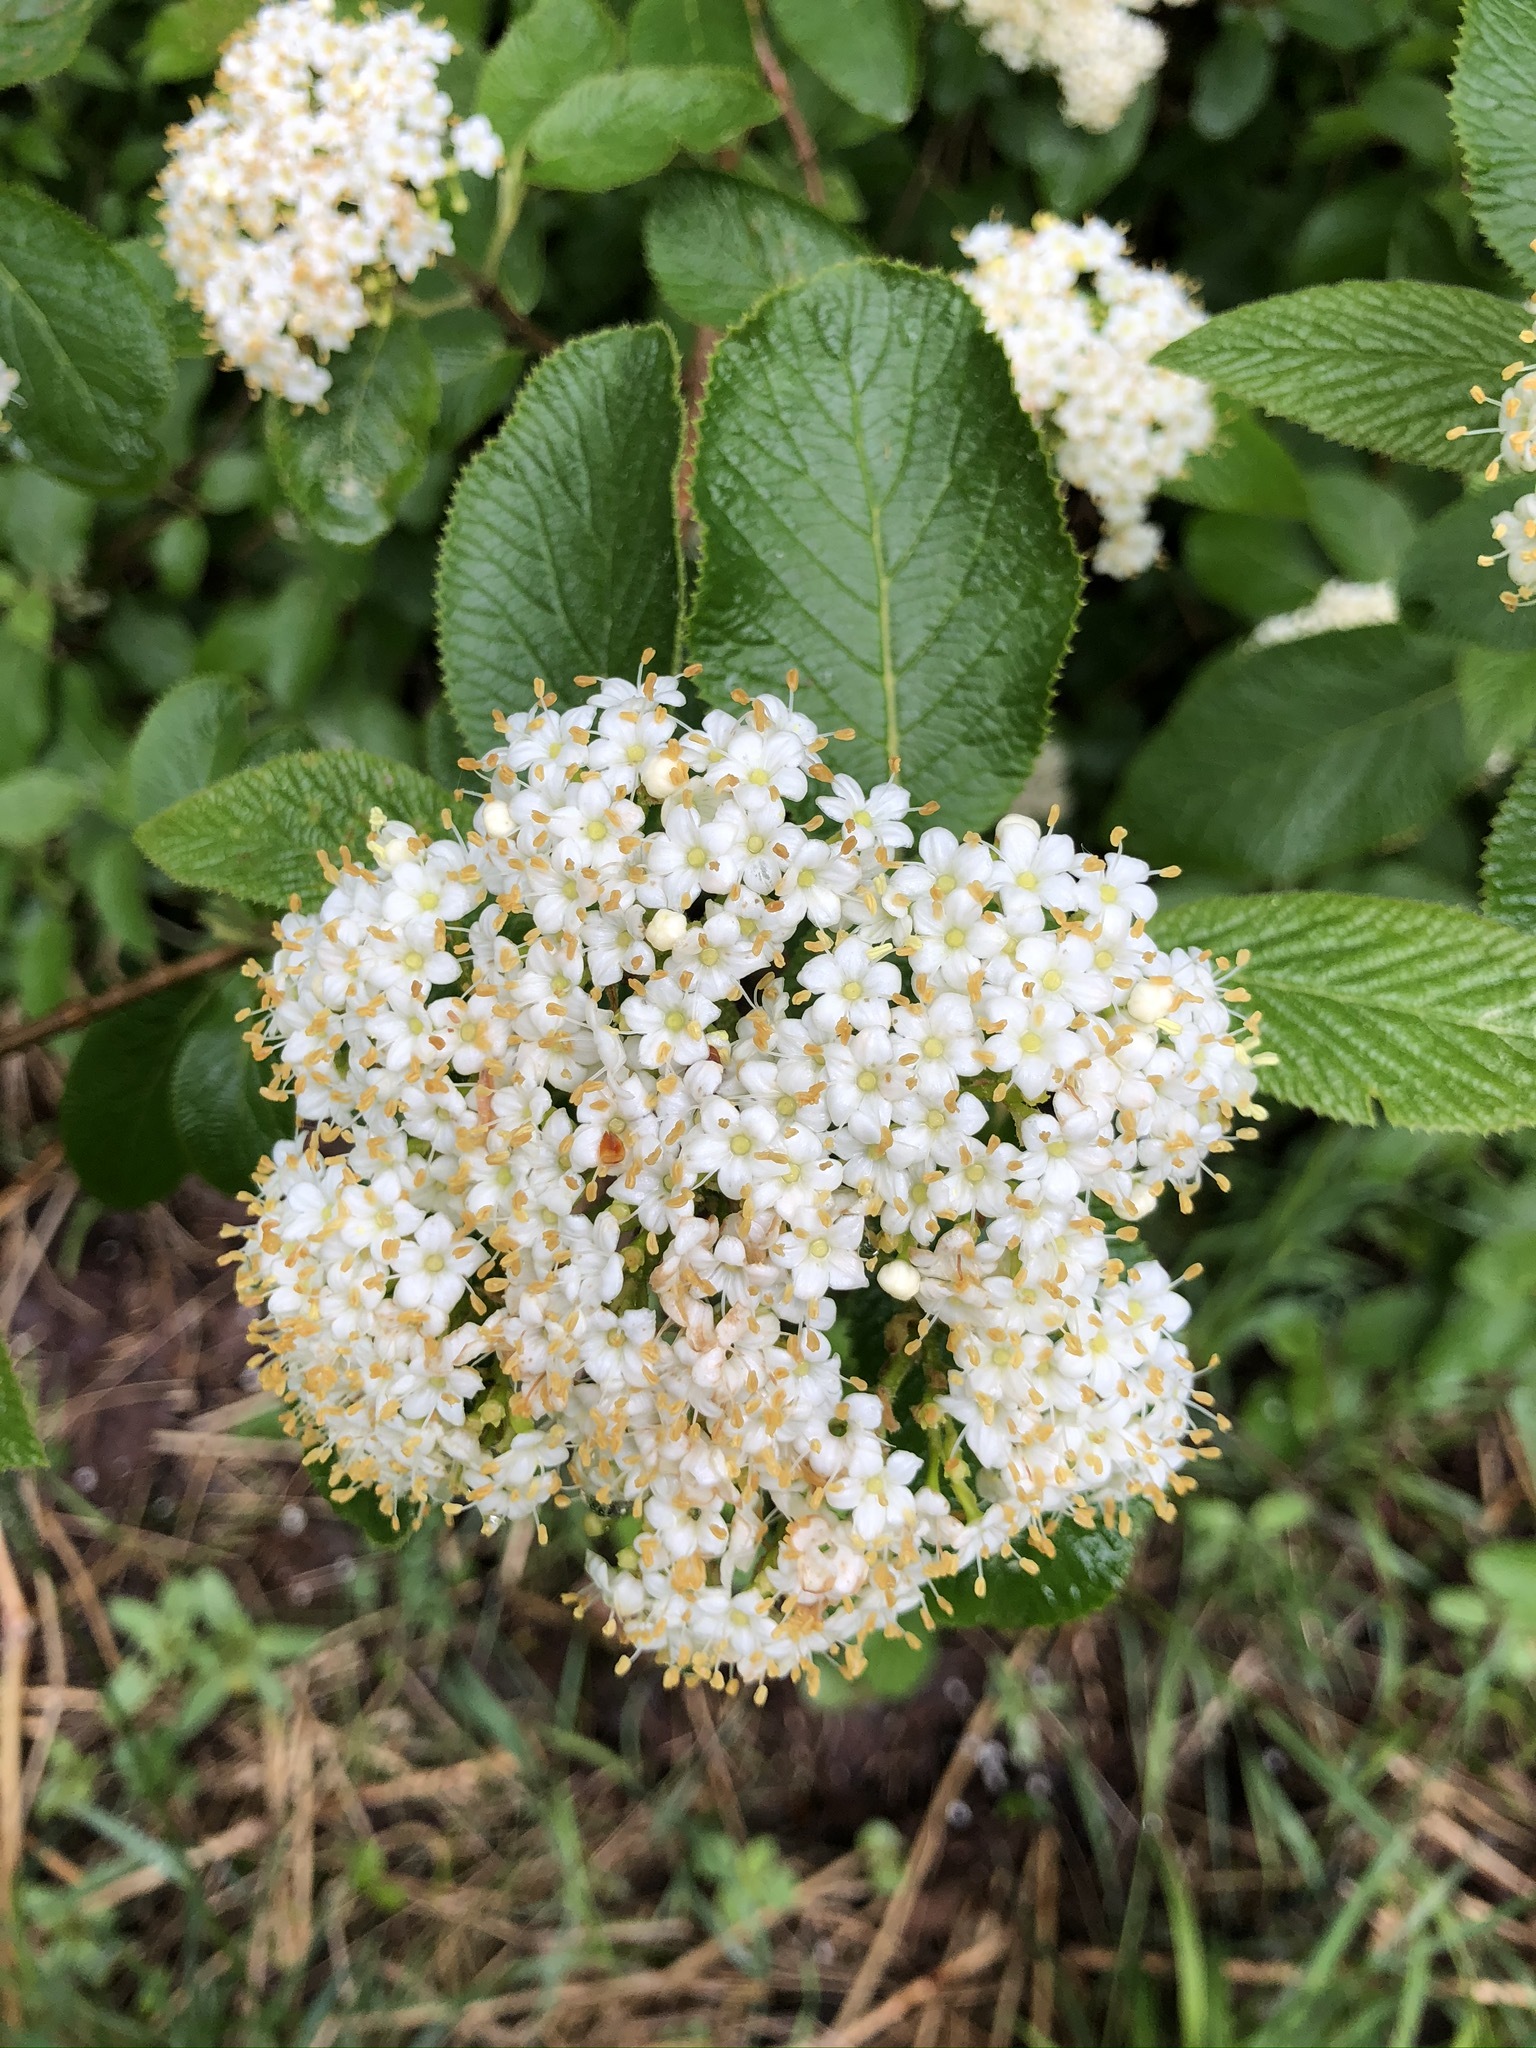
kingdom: Plantae
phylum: Tracheophyta
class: Magnoliopsida
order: Dipsacales
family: Viburnaceae
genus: Viburnum
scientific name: Viburnum lantana
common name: Wayfaring tree
